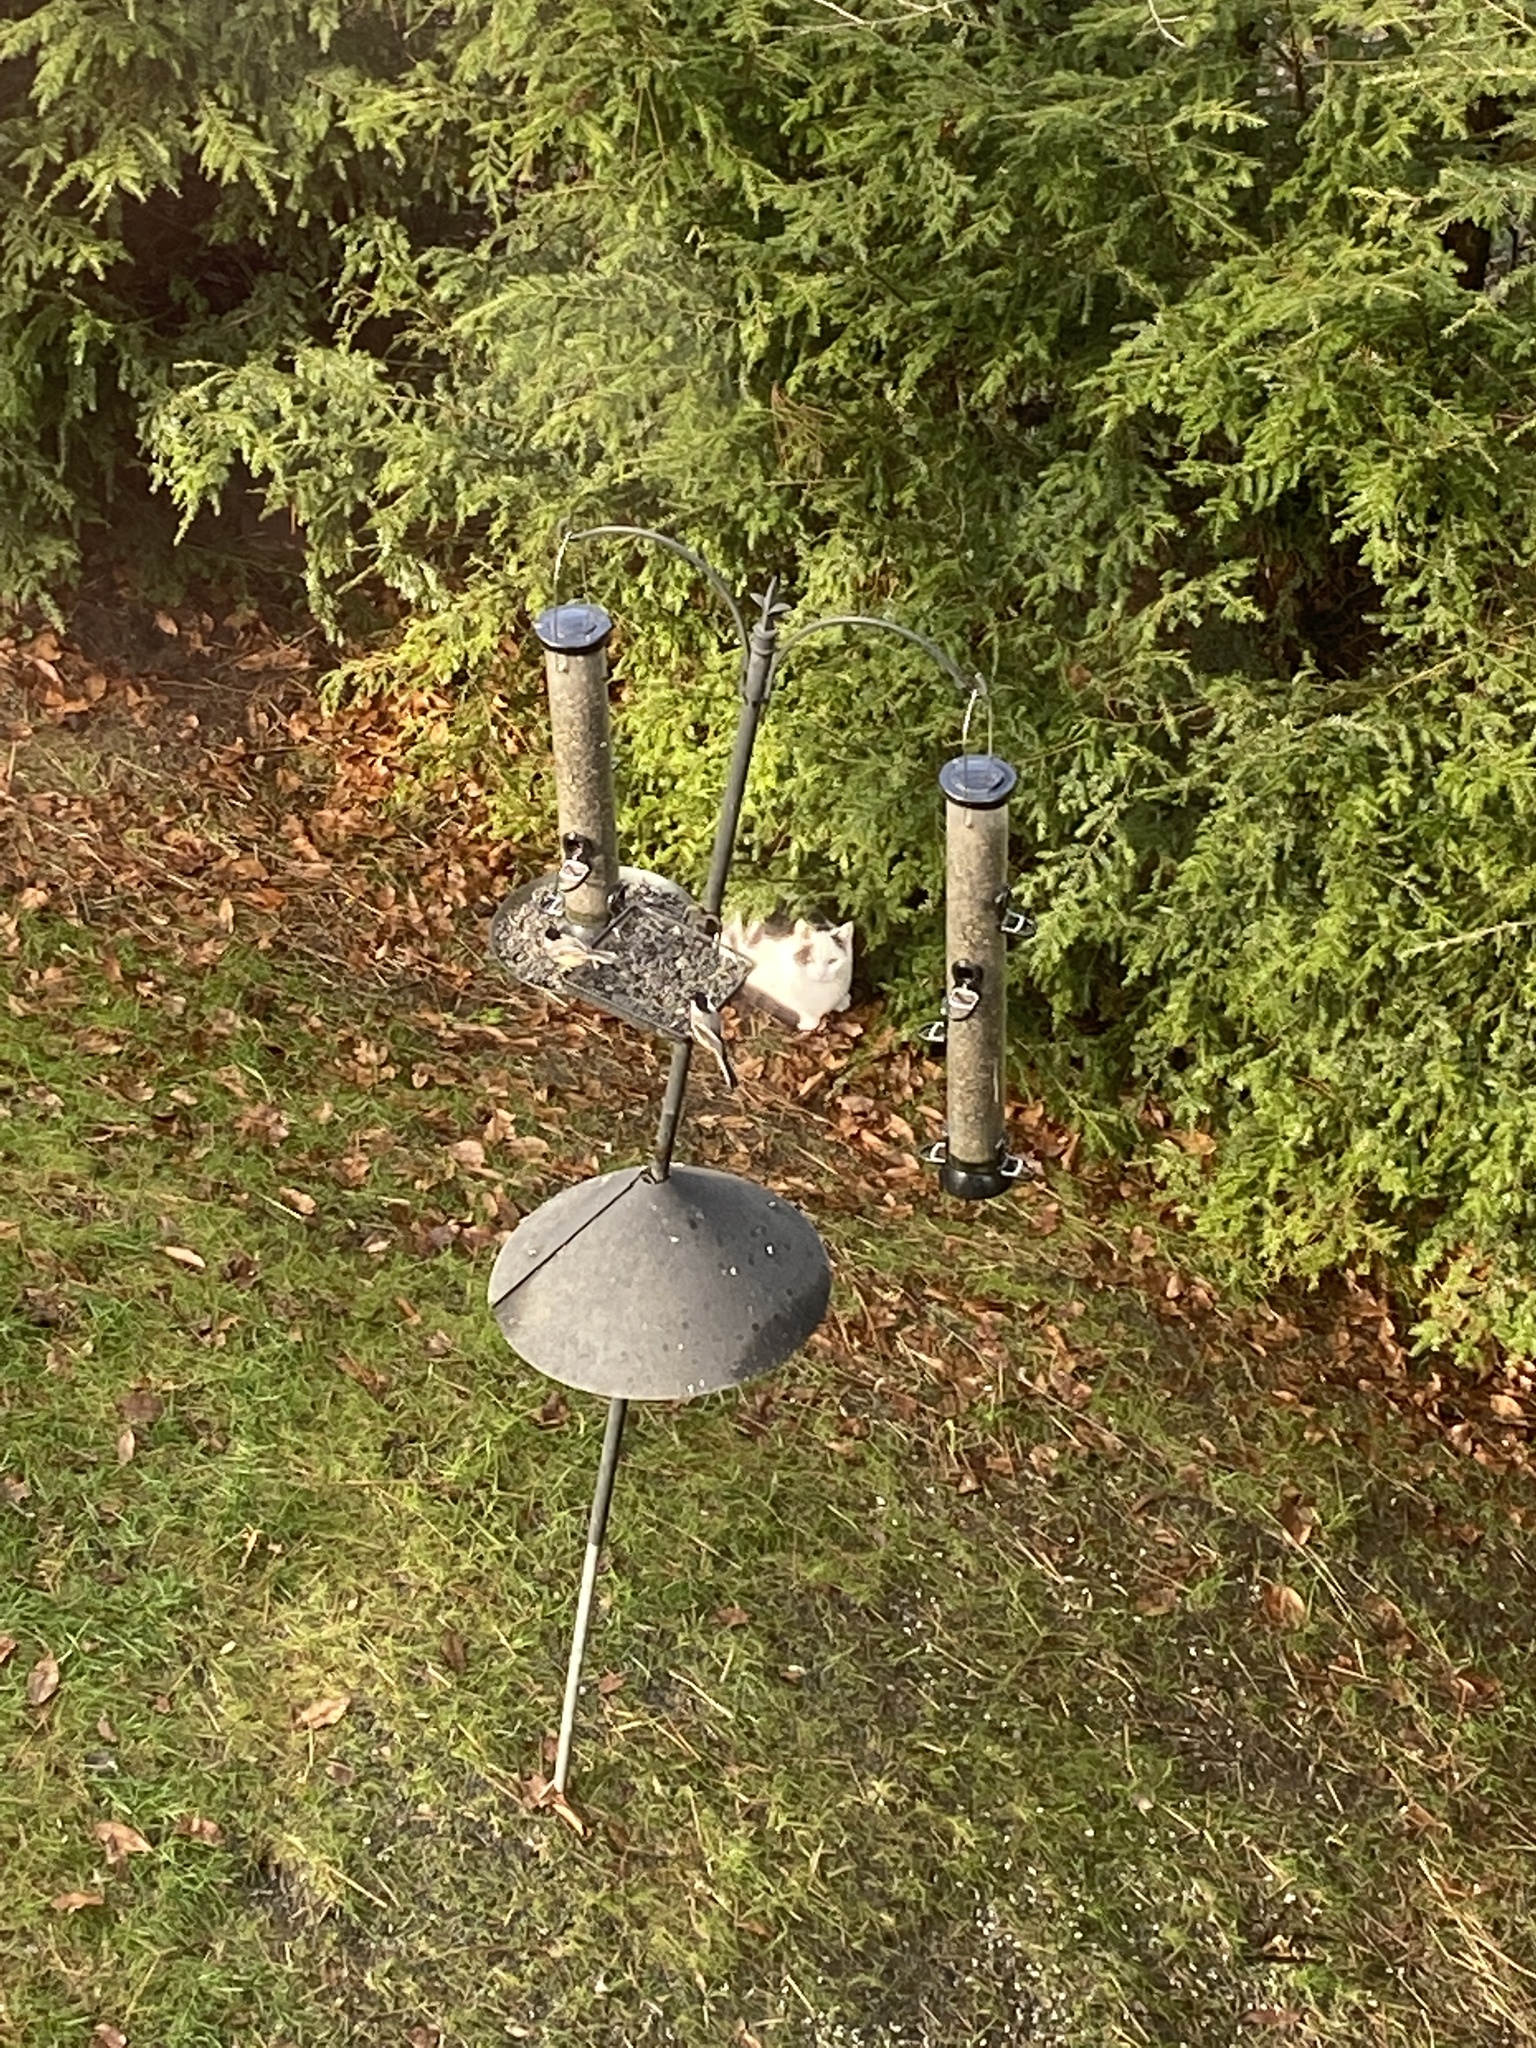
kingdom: Animalia
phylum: Chordata
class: Aves
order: Passeriformes
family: Paridae
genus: Poecile
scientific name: Poecile atricapillus
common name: Black-capped chickadee
